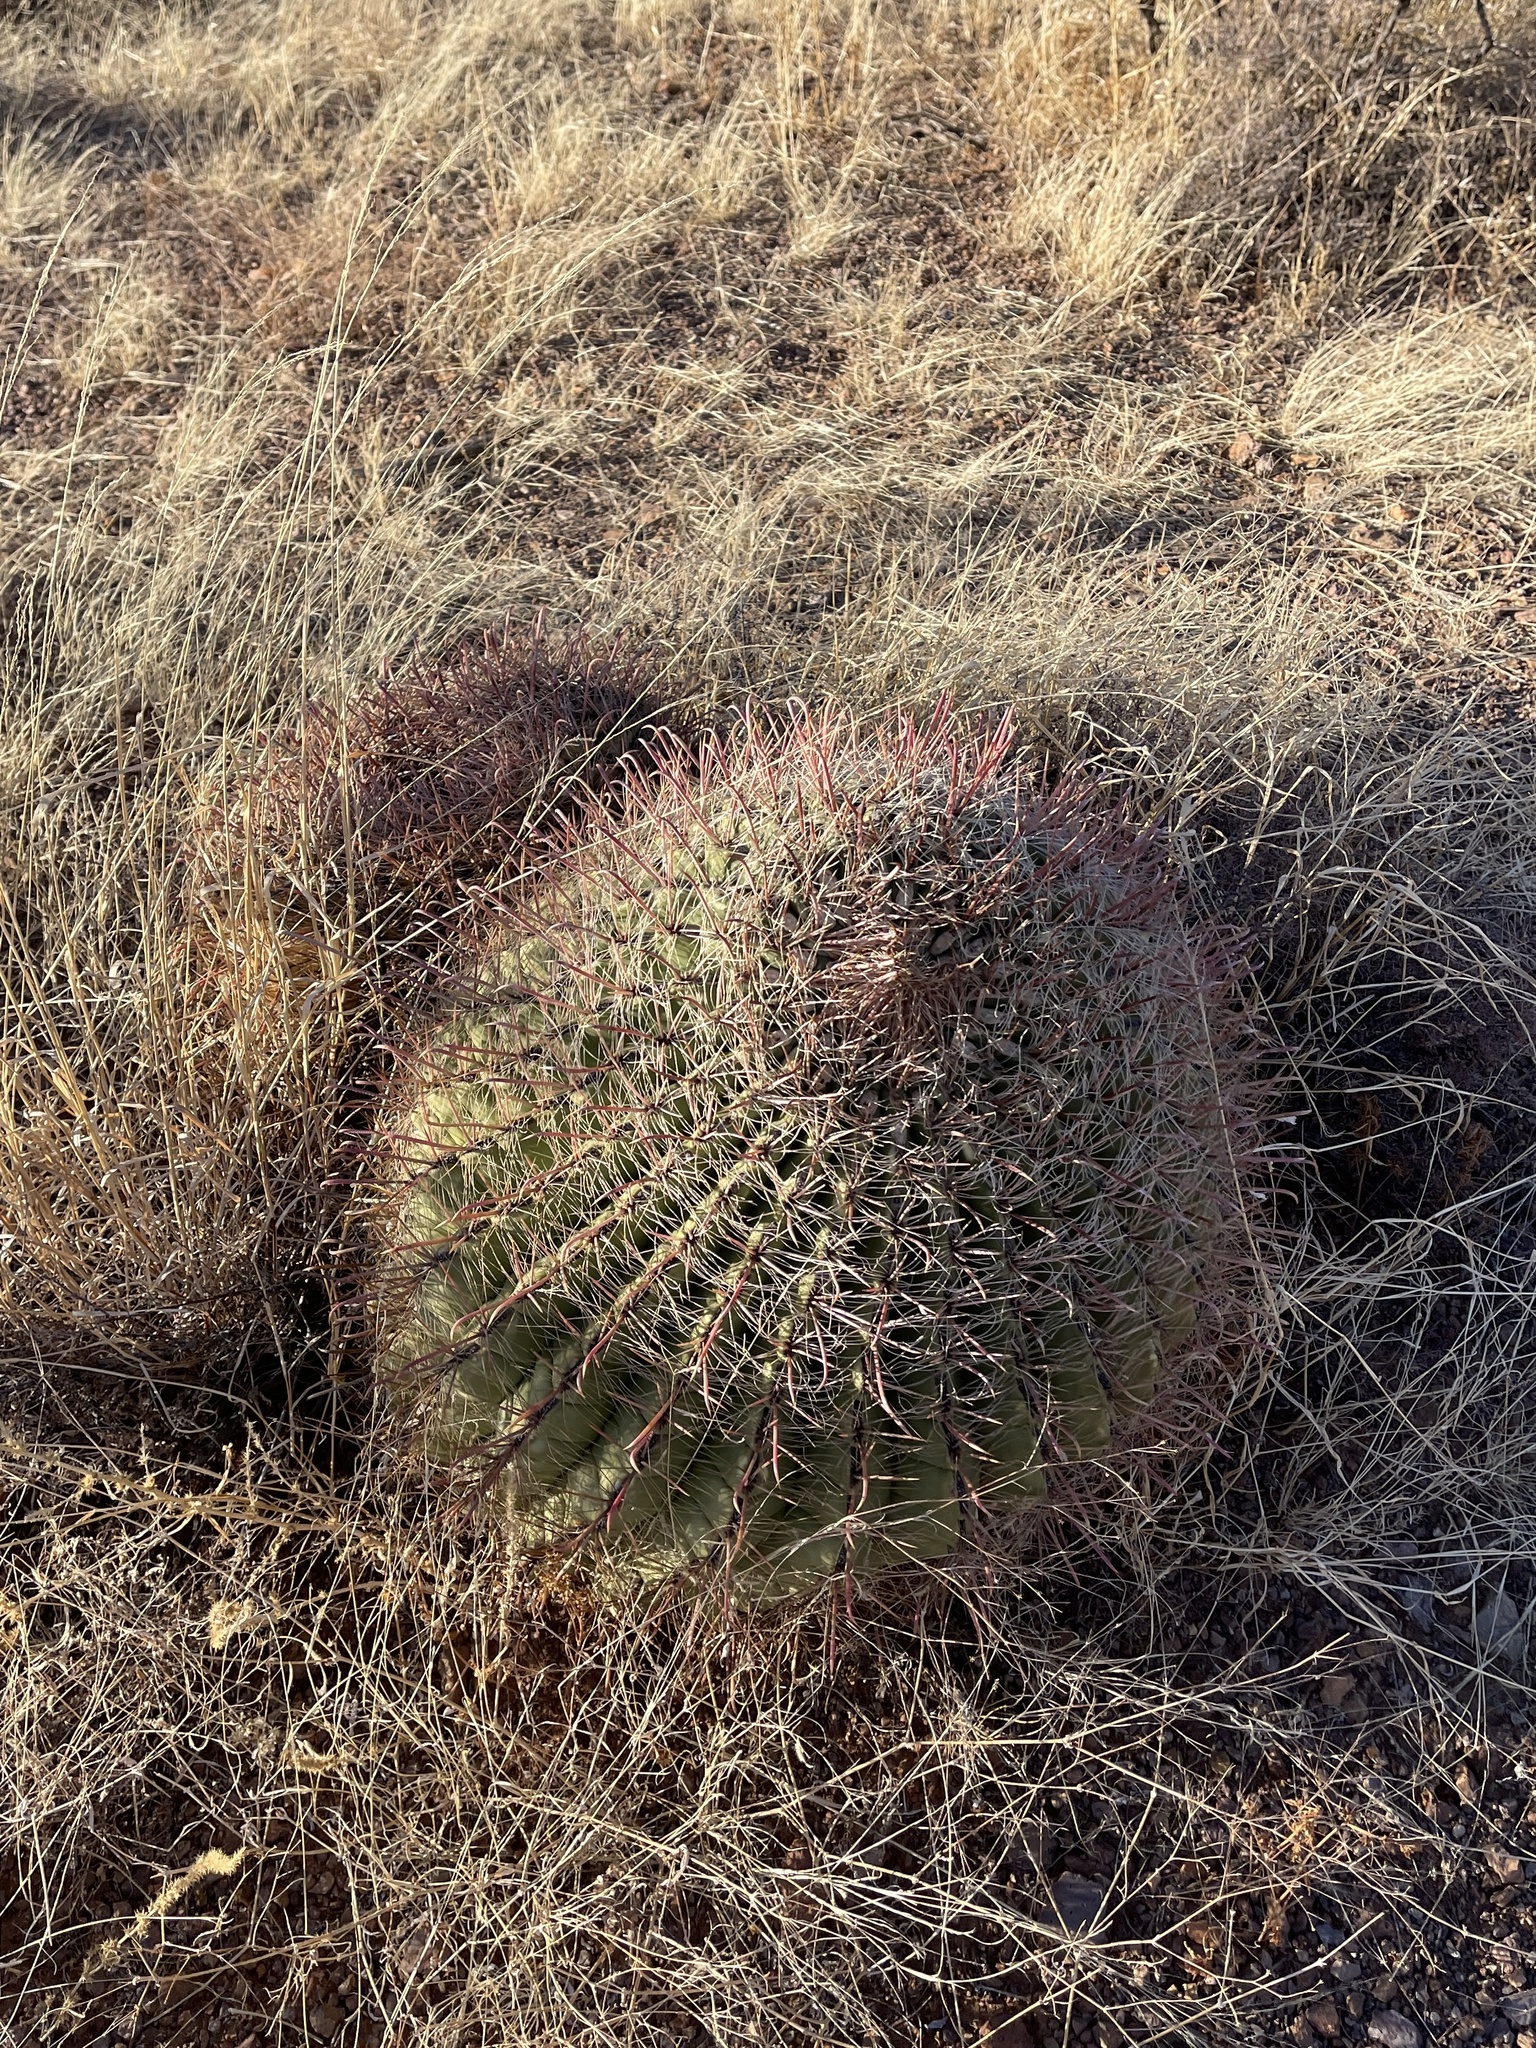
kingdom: Plantae
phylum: Tracheophyta
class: Magnoliopsida
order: Caryophyllales
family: Cactaceae
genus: Ferocactus
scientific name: Ferocactus wislizeni
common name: Candy barrel cactus
